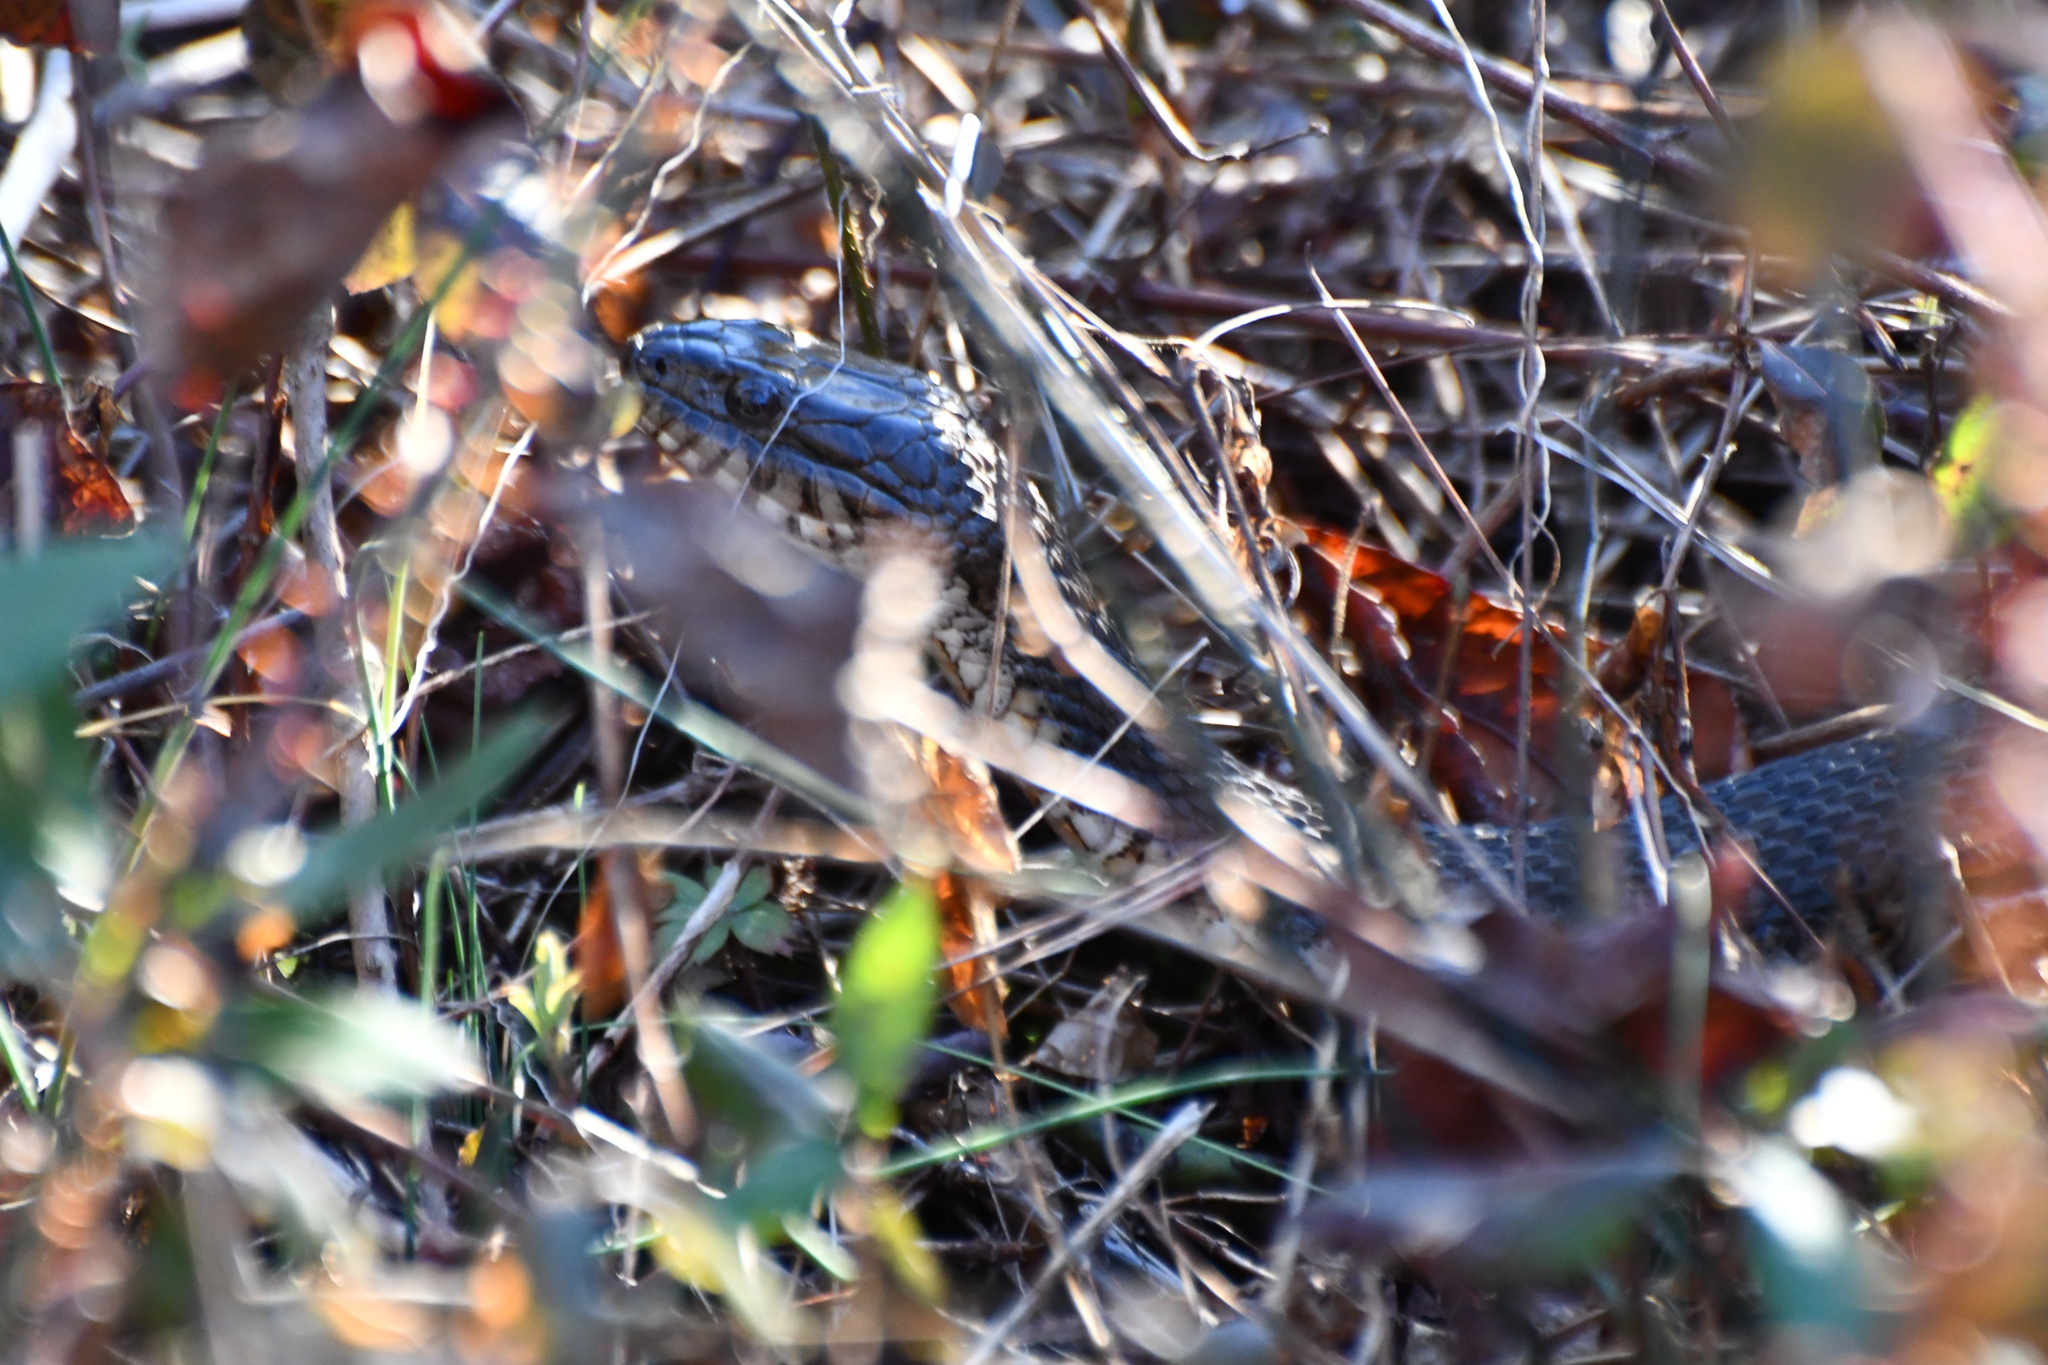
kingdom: Animalia
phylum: Chordata
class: Squamata
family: Colubridae
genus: Nerodia
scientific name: Nerodia sipedon
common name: Northern water snake
